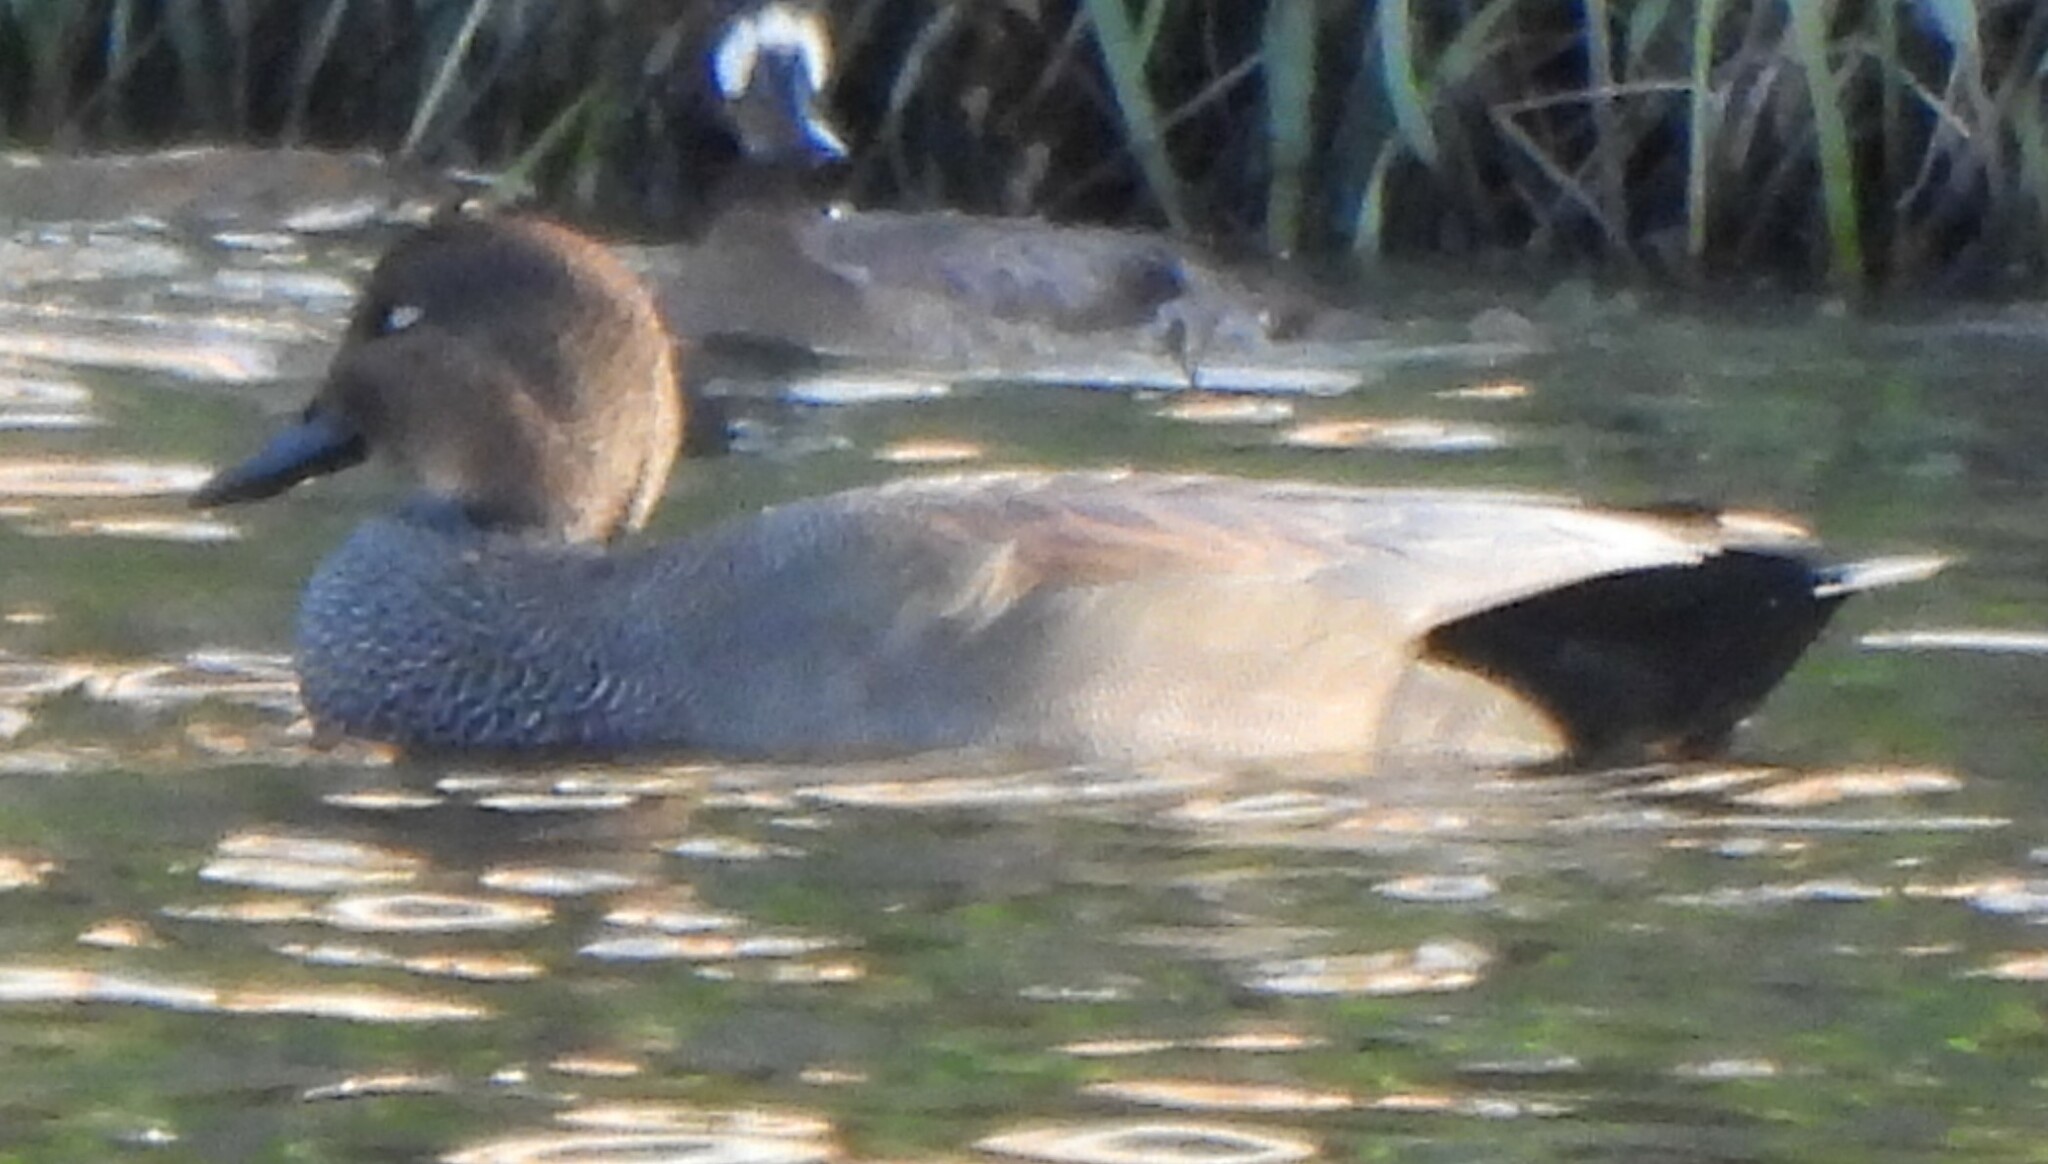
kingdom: Animalia
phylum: Chordata
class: Aves
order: Anseriformes
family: Anatidae
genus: Mareca
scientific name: Mareca strepera
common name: Gadwall
